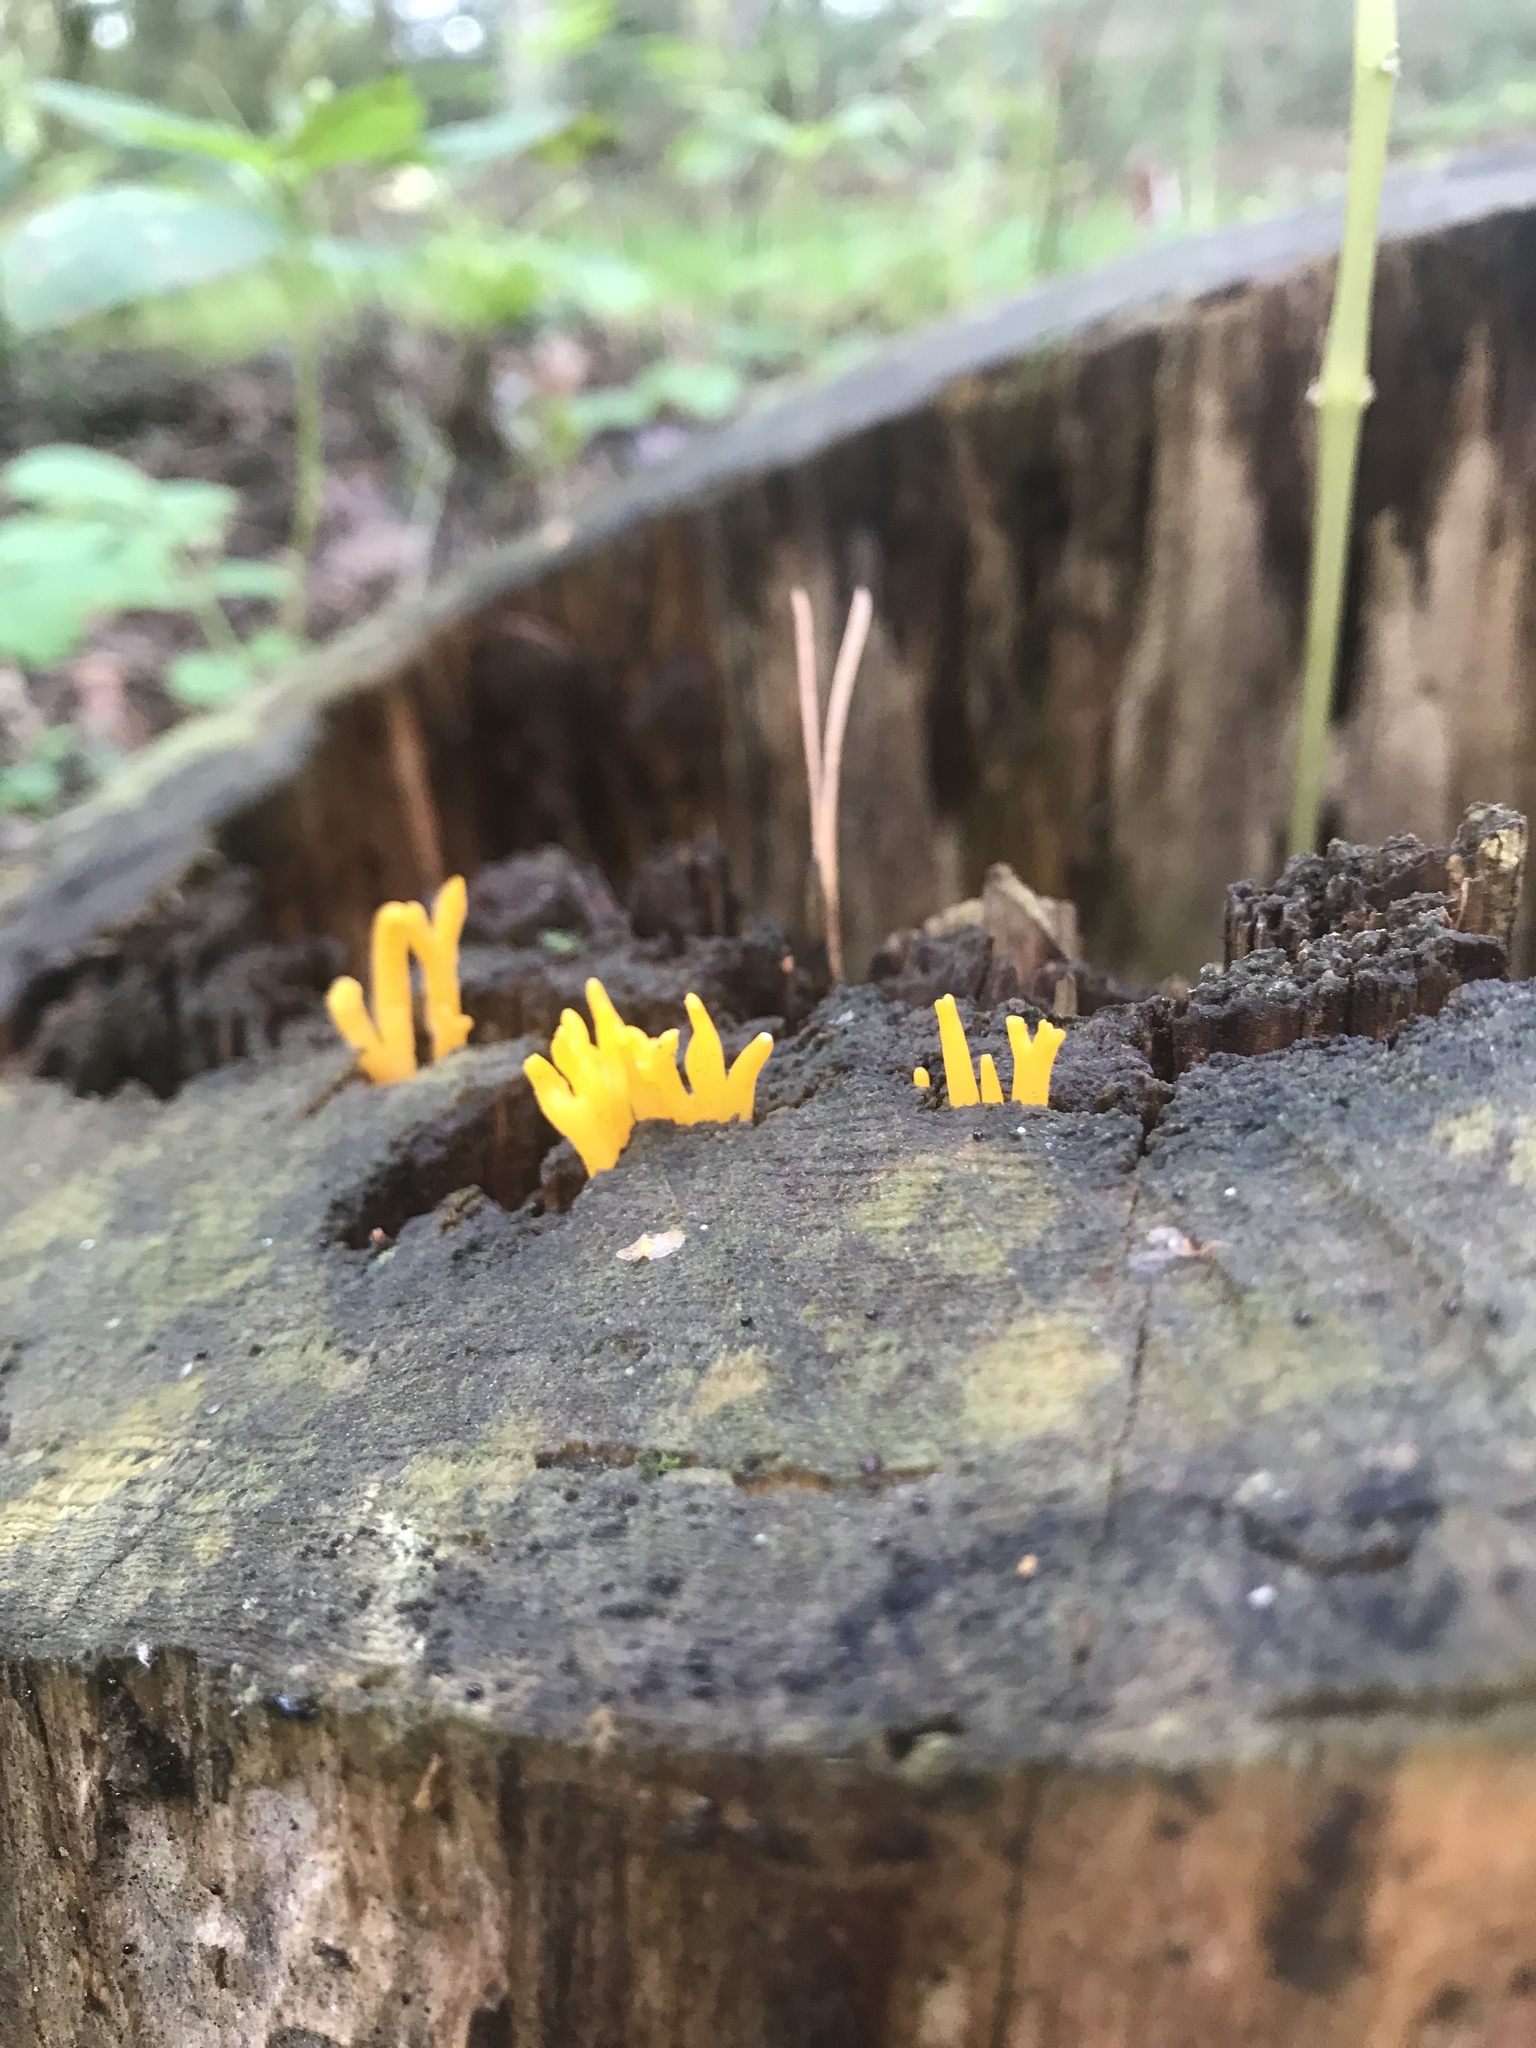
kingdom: Fungi
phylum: Basidiomycota
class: Dacrymycetes
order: Dacrymycetales
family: Dacrymycetaceae
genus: Calocera
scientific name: Calocera viscosa
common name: Yellow stagshorn
